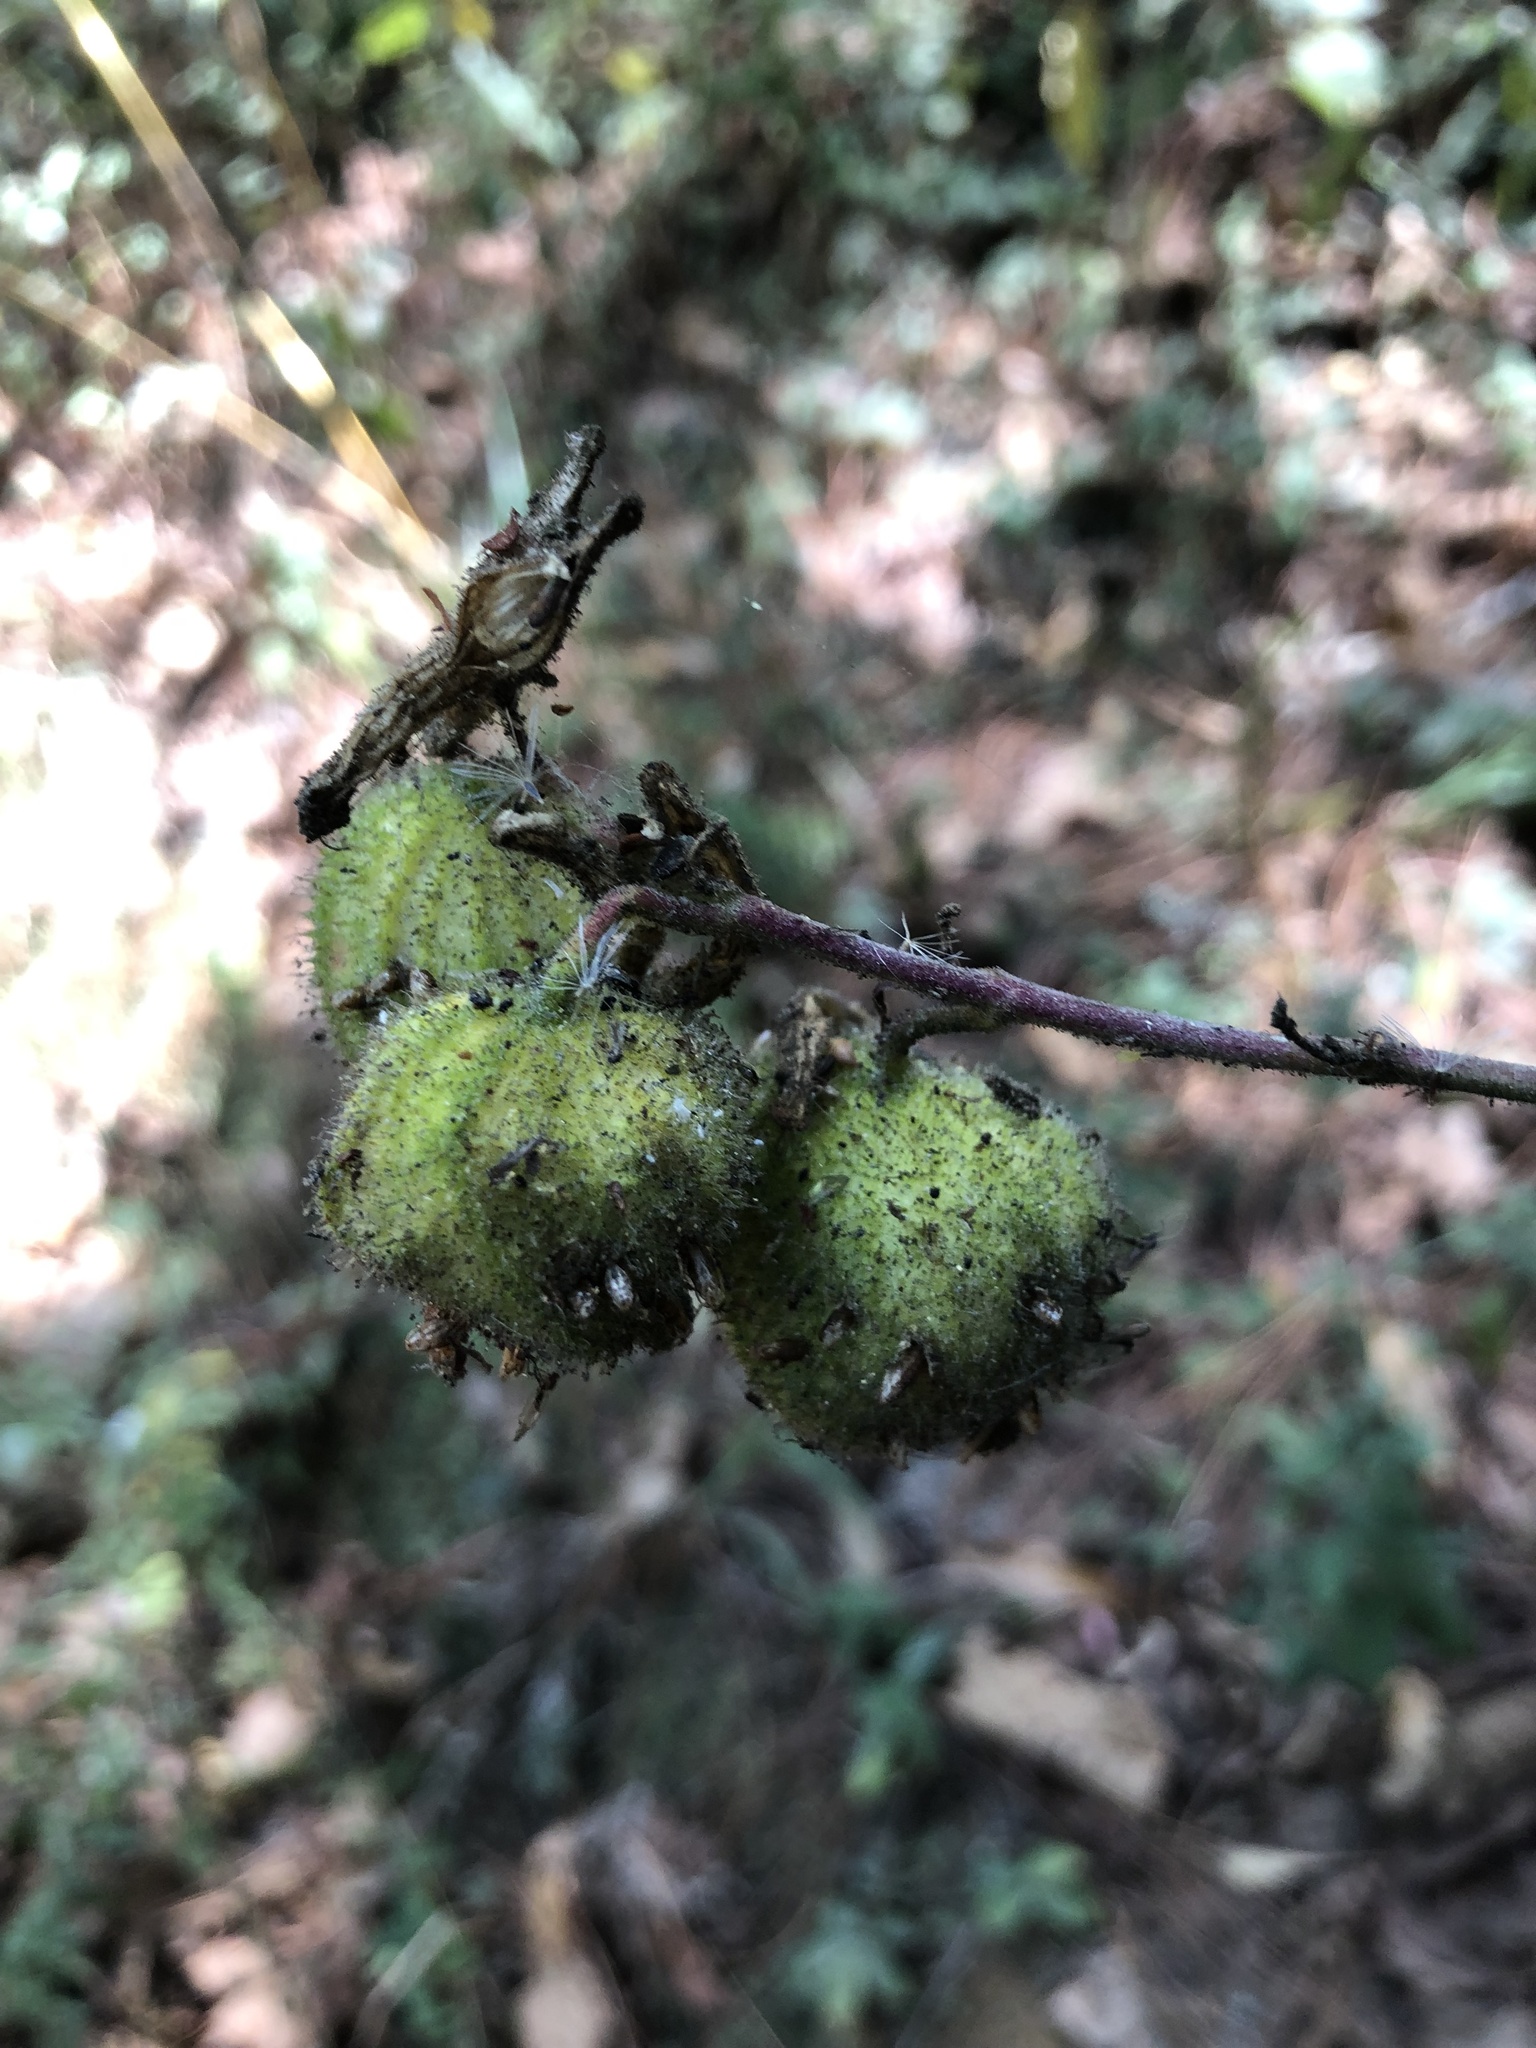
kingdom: Plantae
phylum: Tracheophyta
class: Magnoliopsida
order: Myrtales
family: Lythraceae
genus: Cuphea
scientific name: Cuphea cyanea
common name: Black-eyed cuphea
